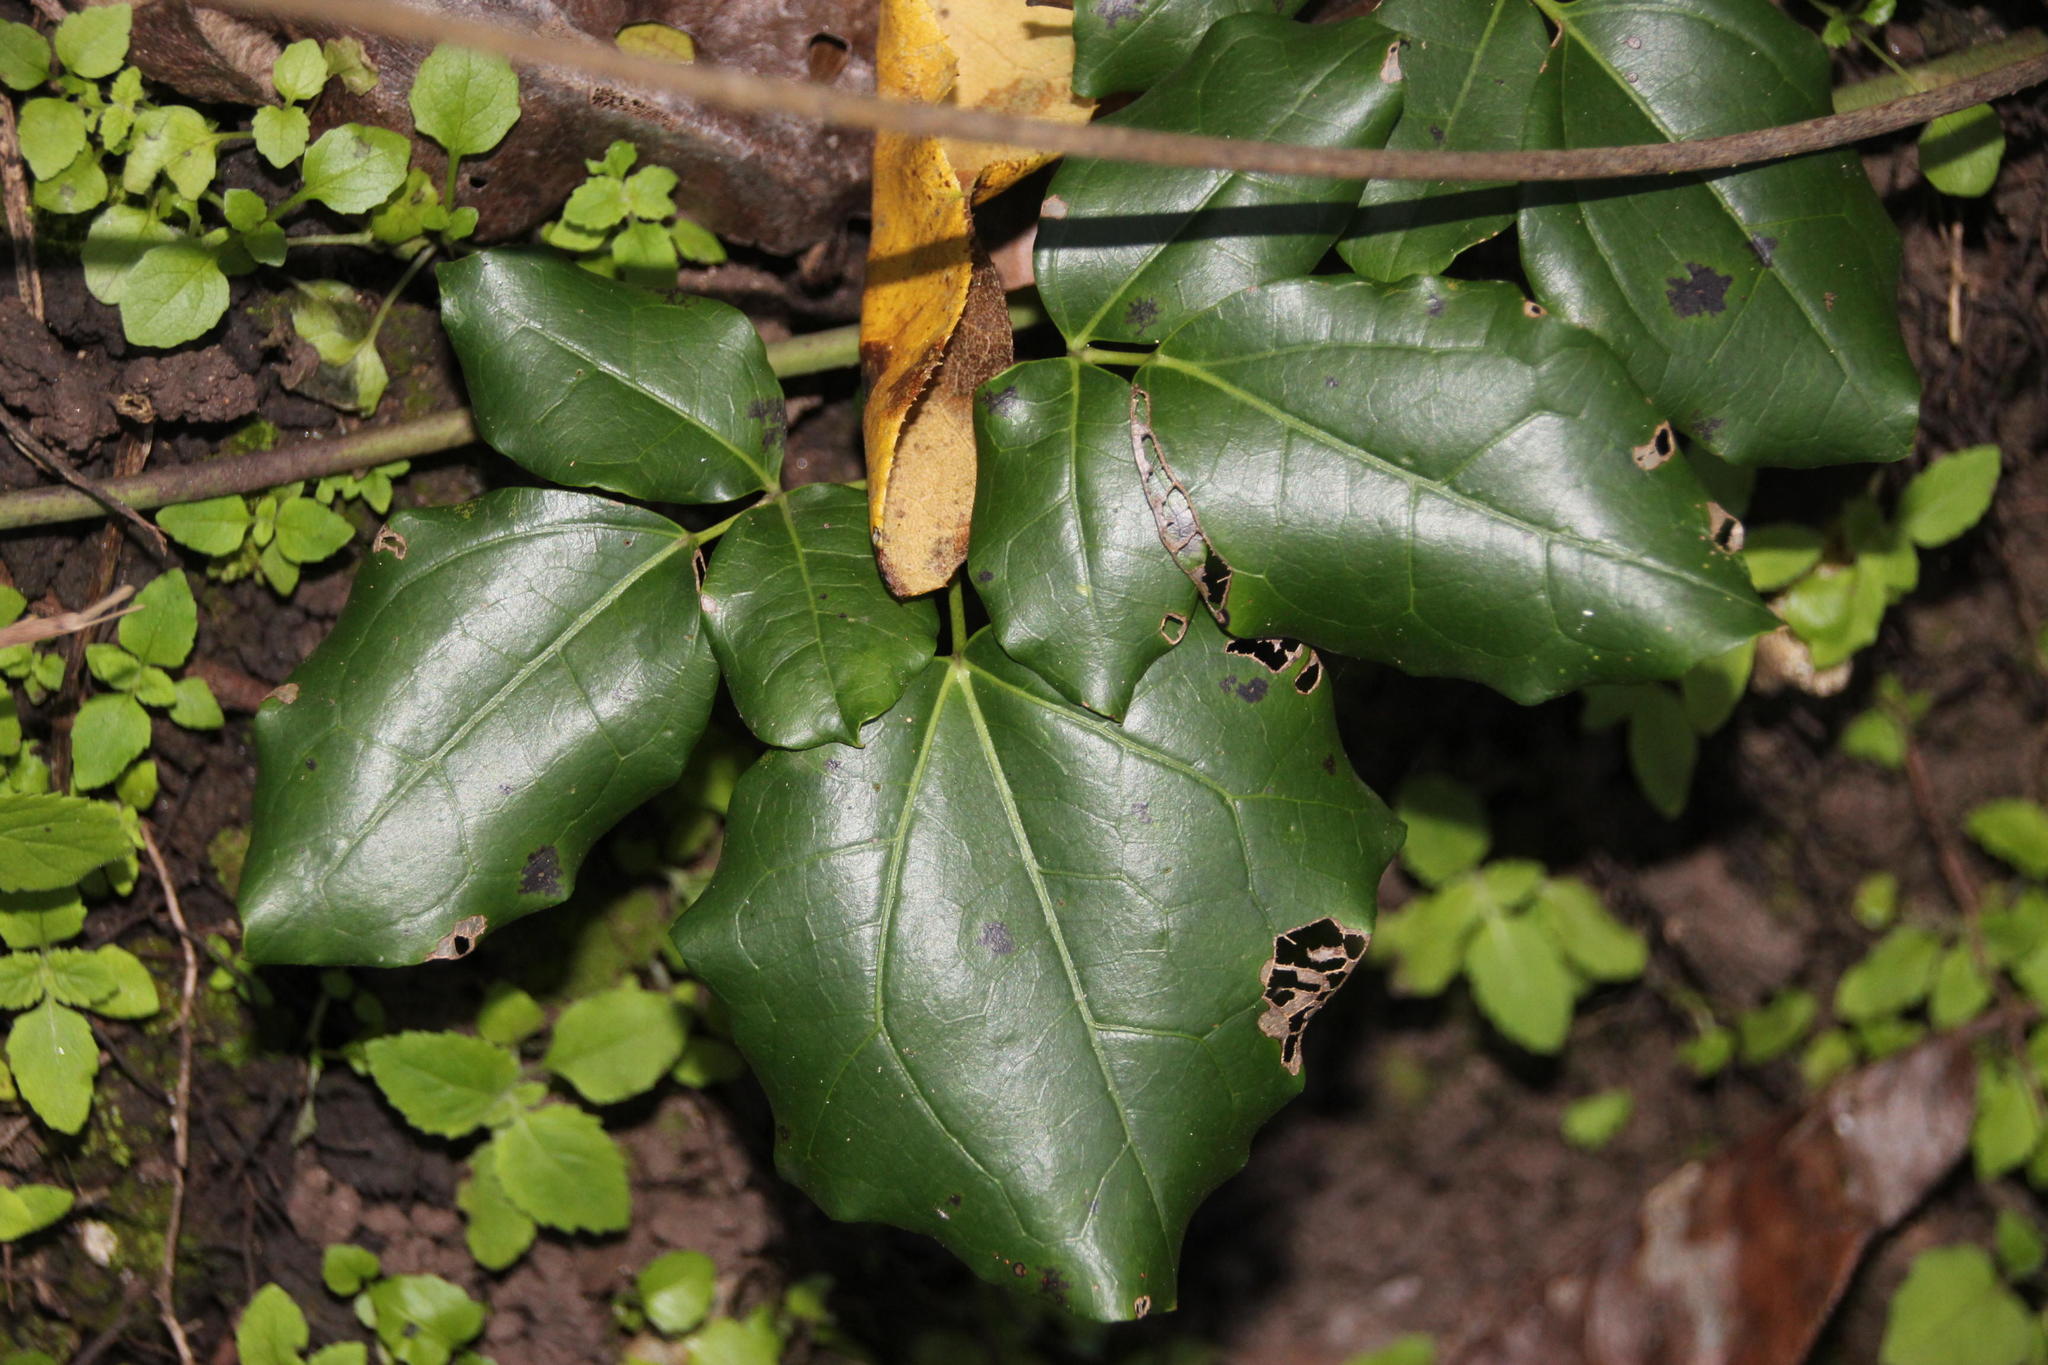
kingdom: Plantae
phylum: Tracheophyta
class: Magnoliopsida
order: Ranunculales
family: Lardizabalaceae
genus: Lardizabala
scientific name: Lardizabala funaria
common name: Zabala
